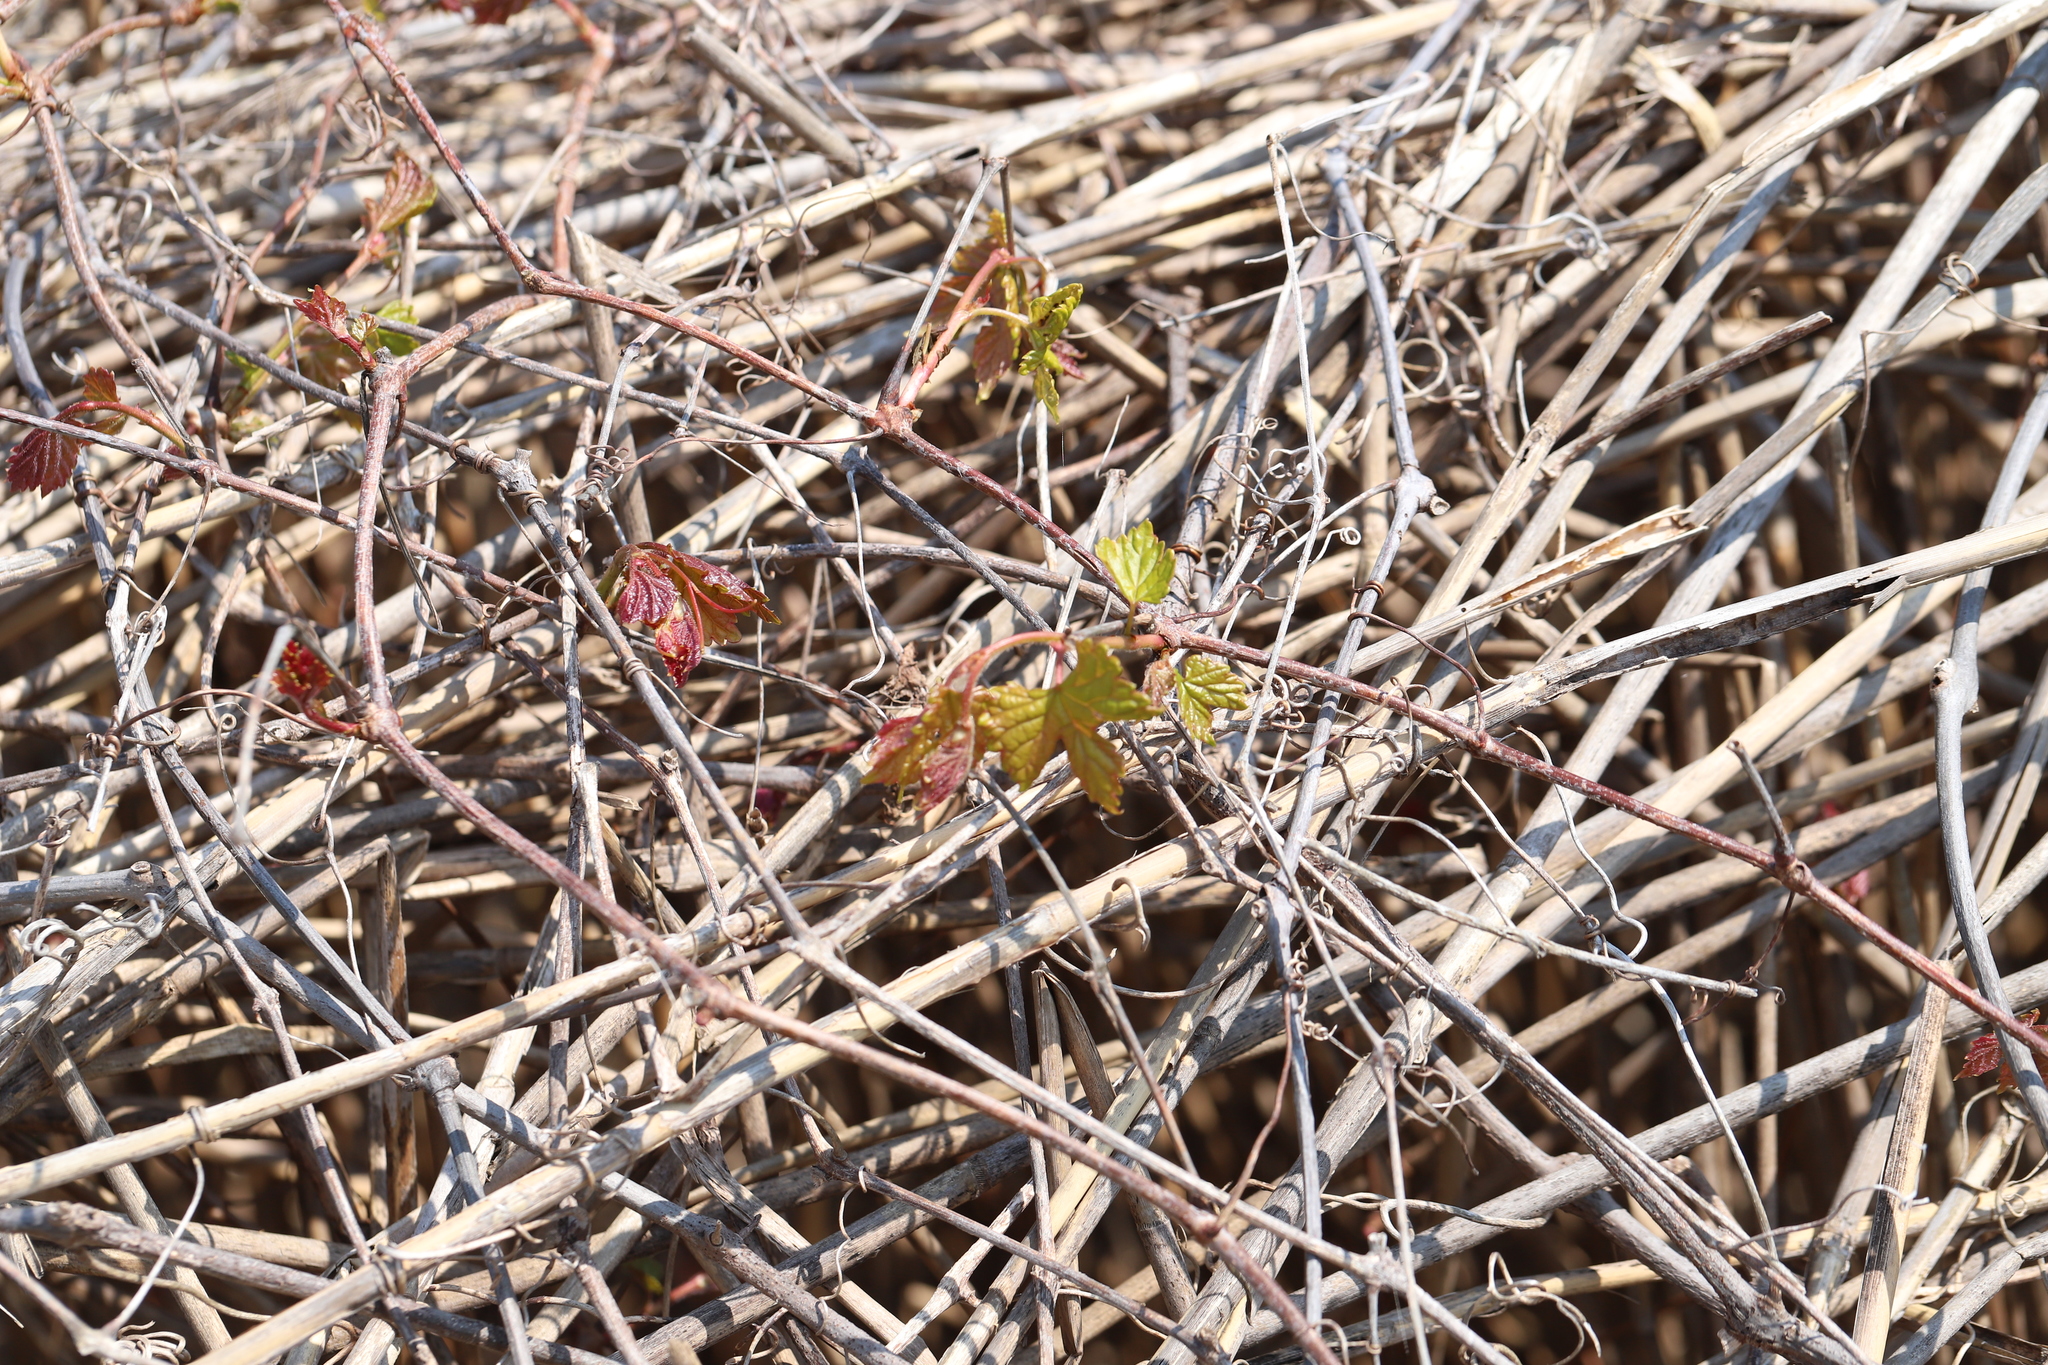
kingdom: Plantae
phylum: Tracheophyta
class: Magnoliopsida
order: Vitales
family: Vitaceae
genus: Ampelopsis
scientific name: Ampelopsis glandulosa
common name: Amur peppervine
